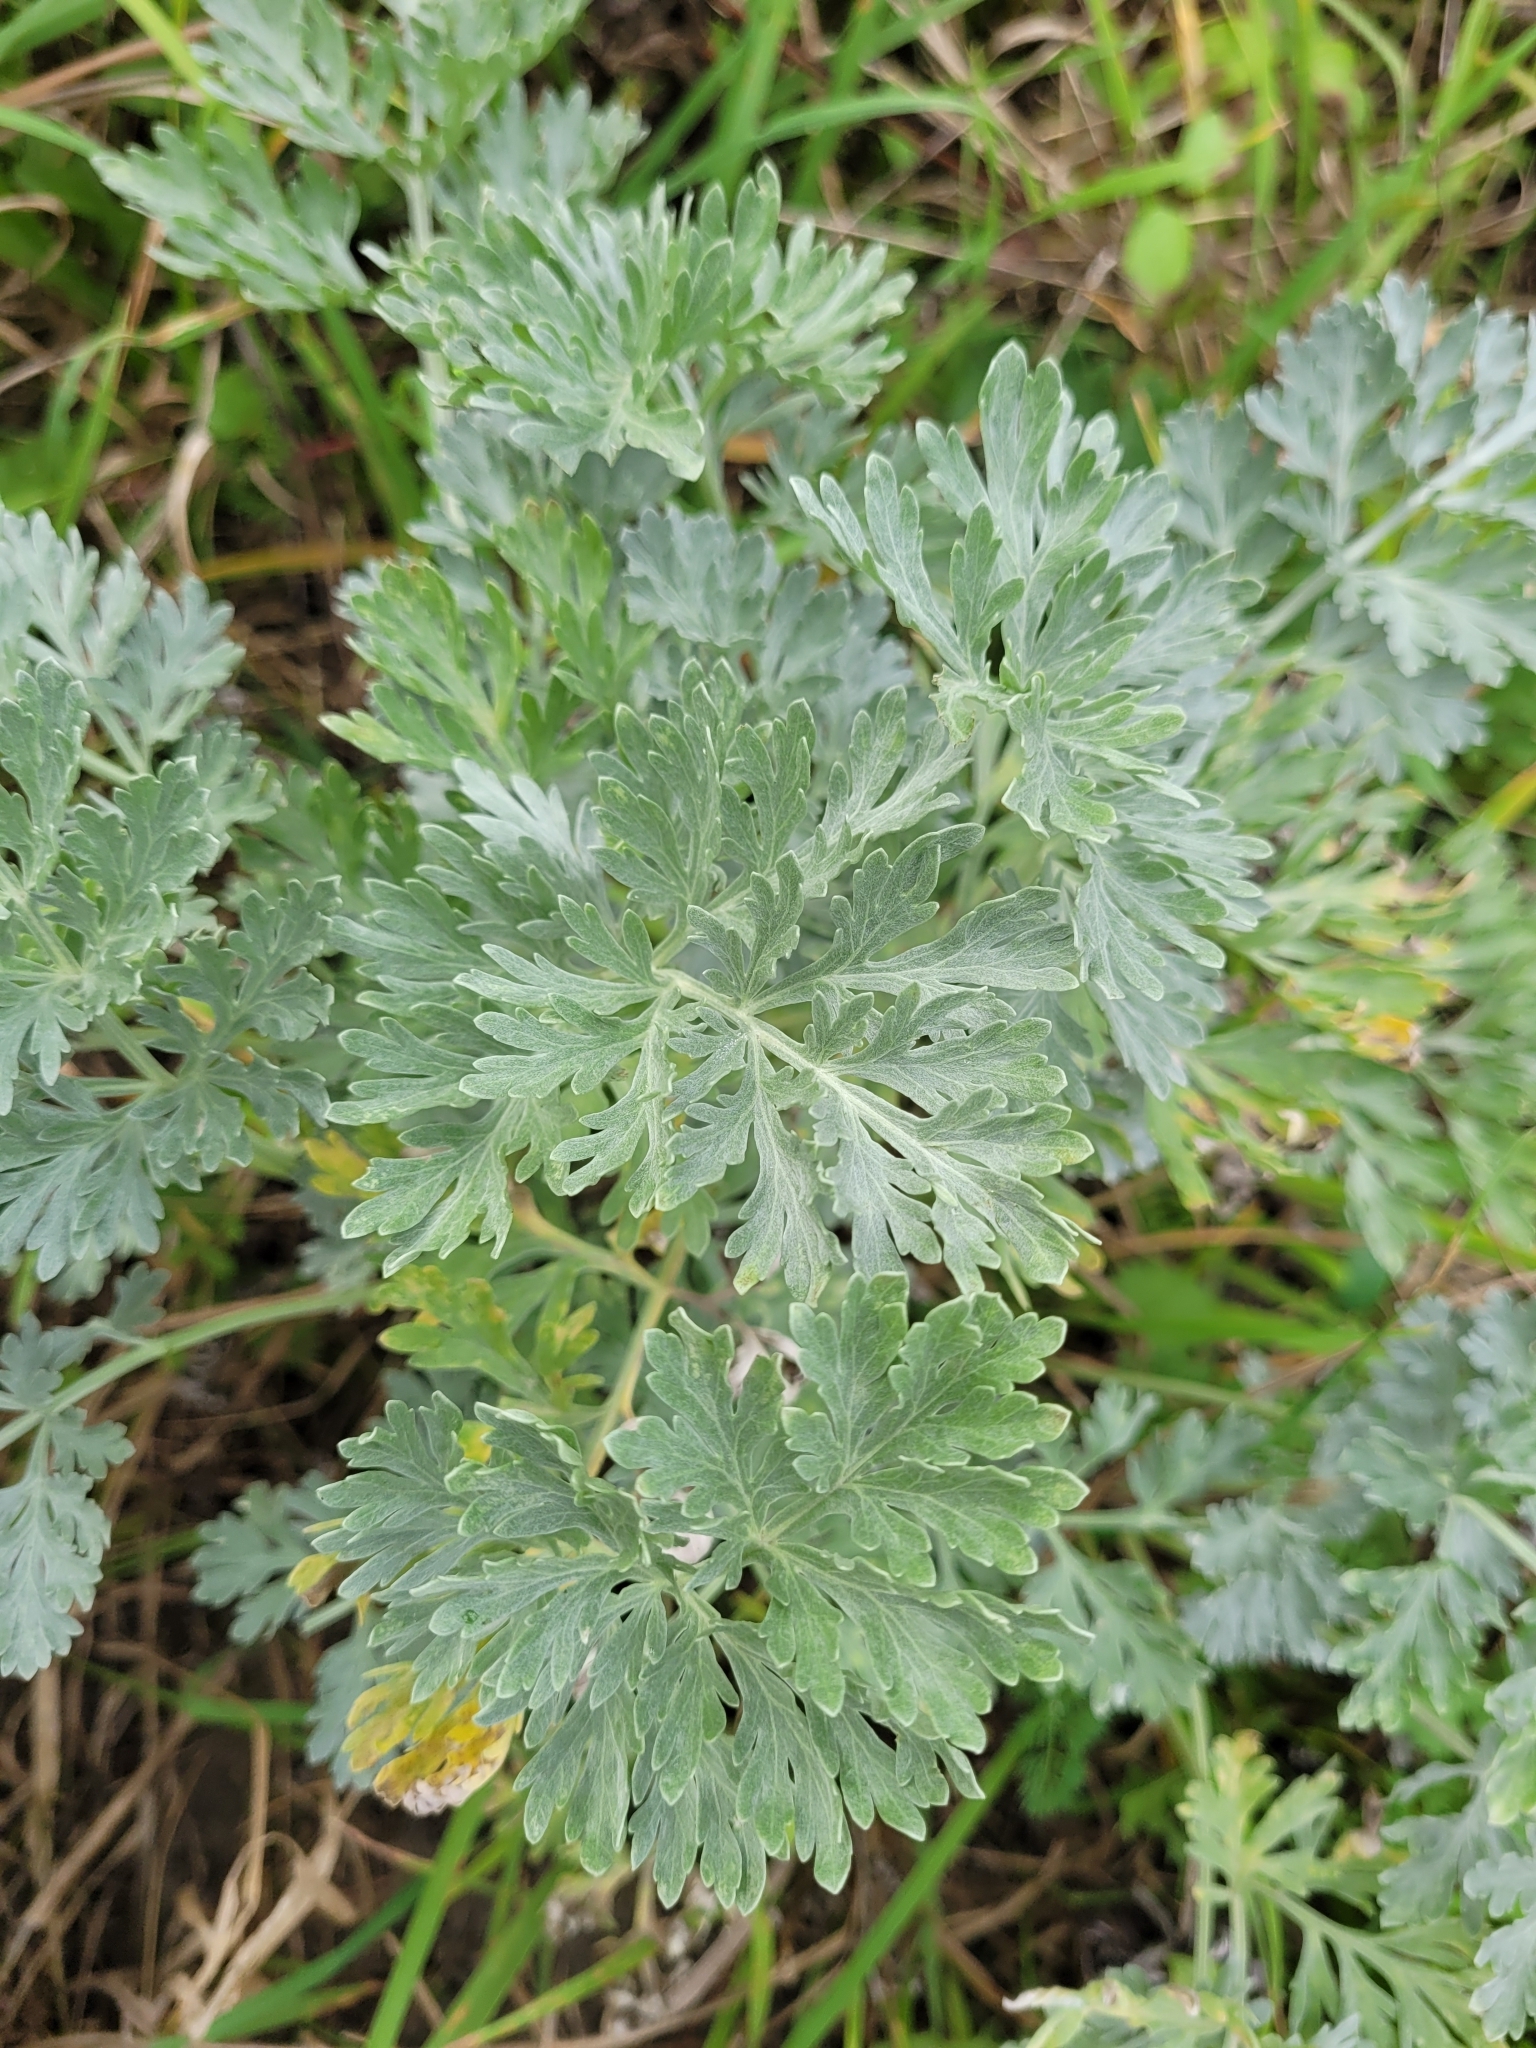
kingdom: Plantae
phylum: Tracheophyta
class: Magnoliopsida
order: Asterales
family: Asteraceae
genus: Artemisia
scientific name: Artemisia absinthium
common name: Wormwood
